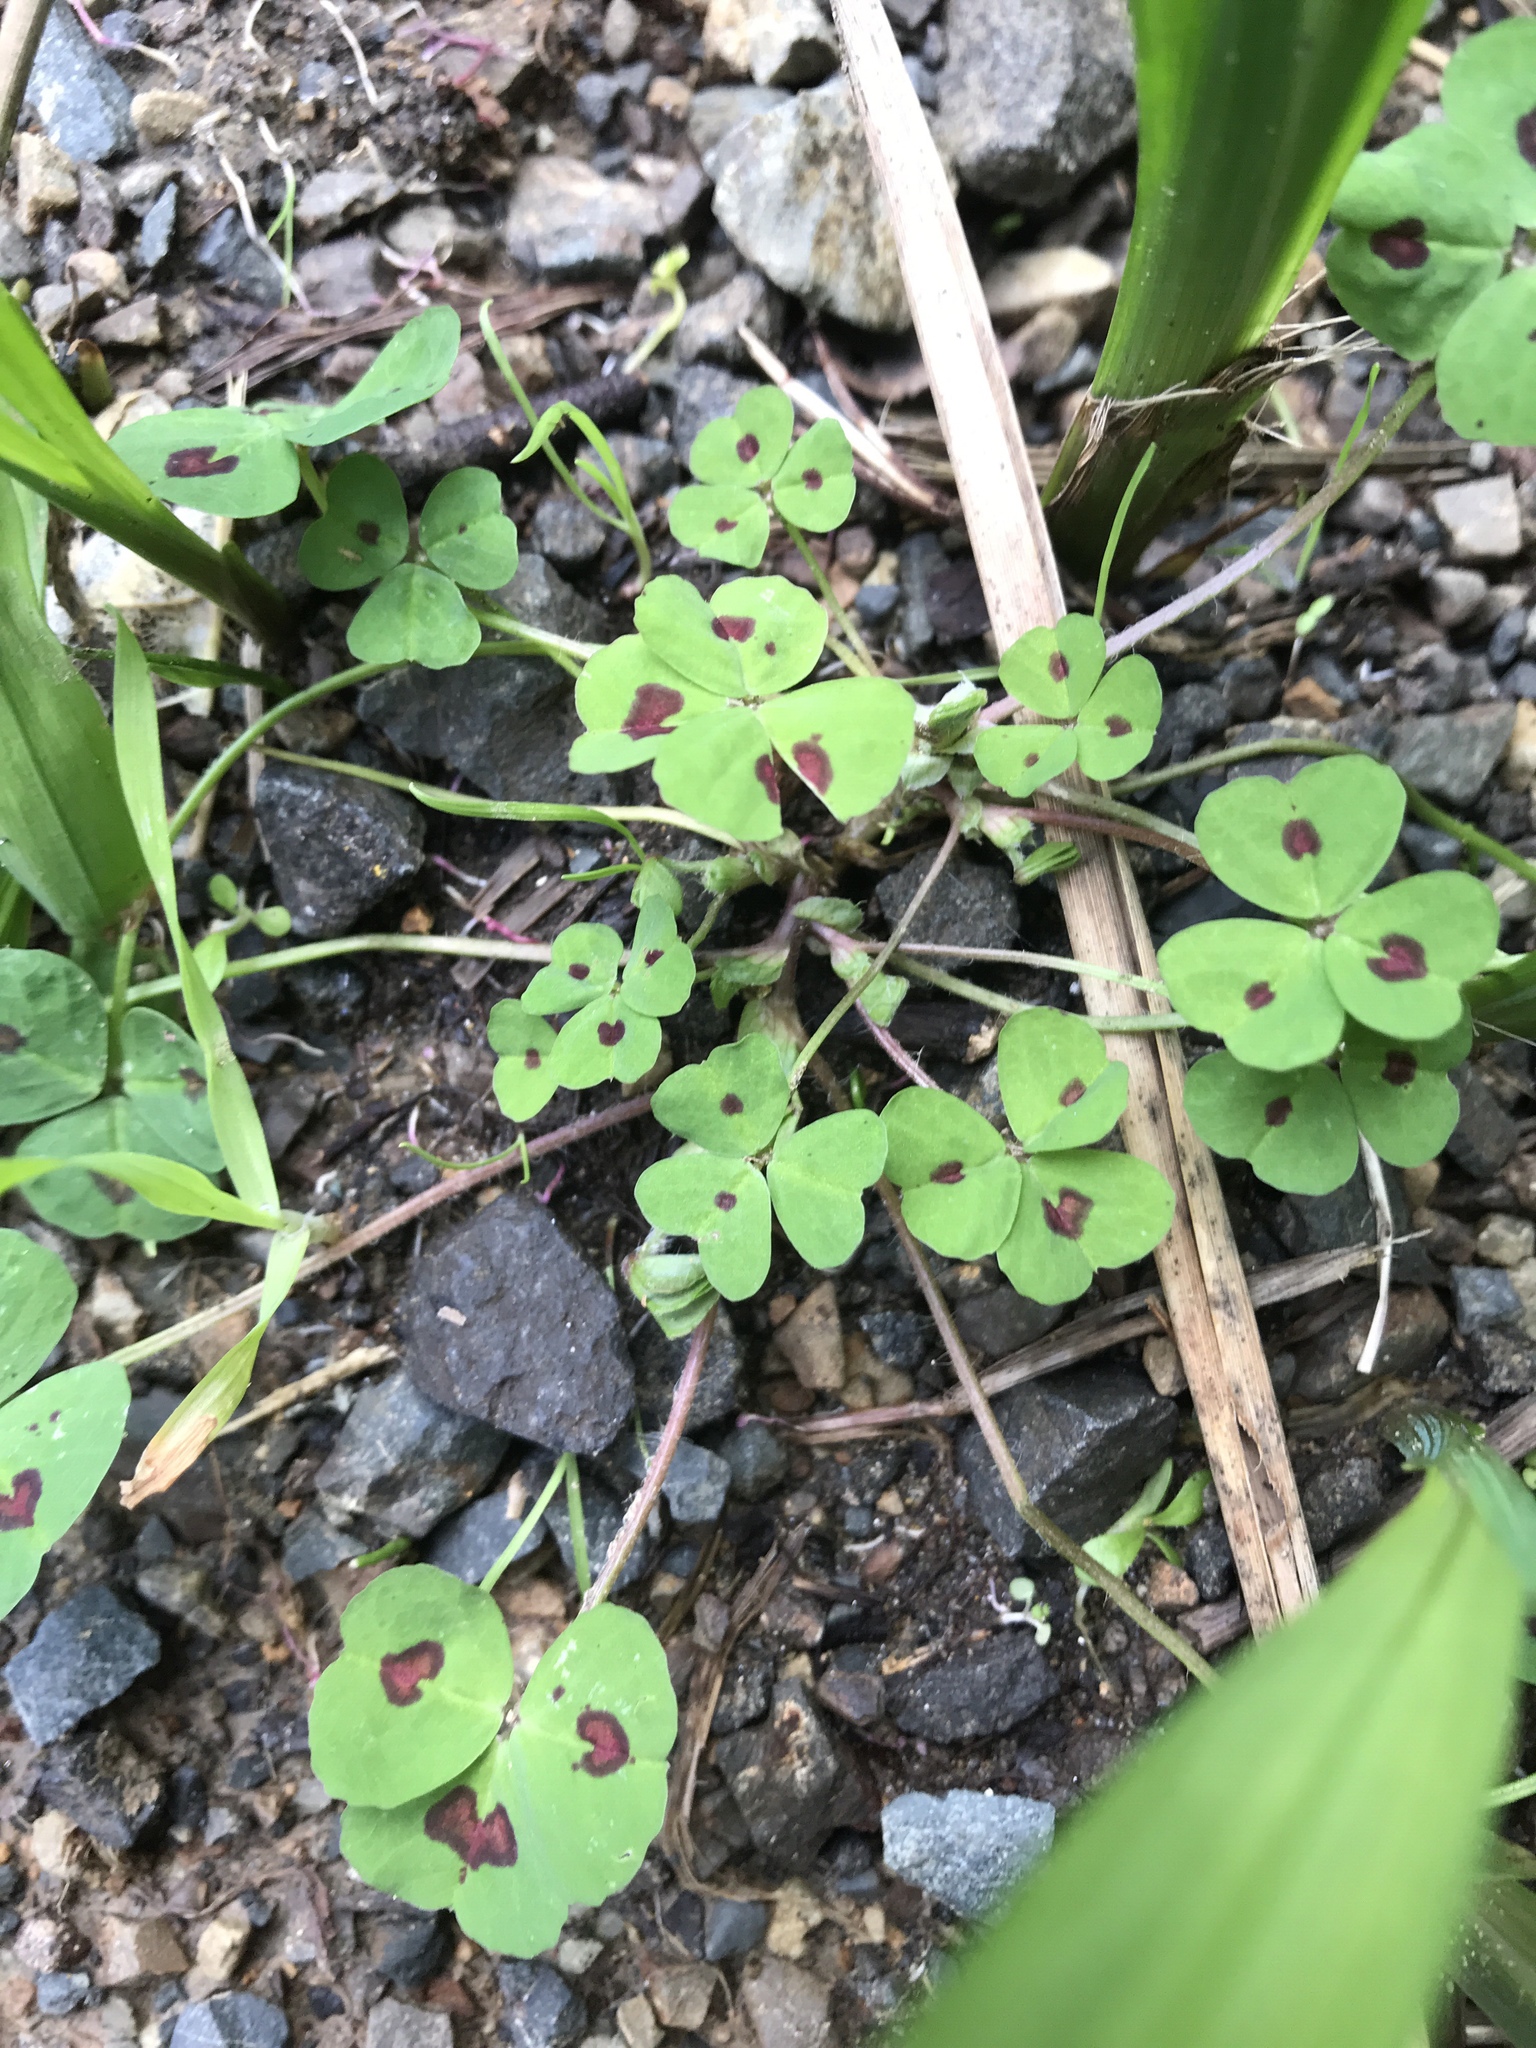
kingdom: Plantae
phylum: Tracheophyta
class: Magnoliopsida
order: Fabales
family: Fabaceae
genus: Medicago
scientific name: Medicago arabica
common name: Spotted medick
